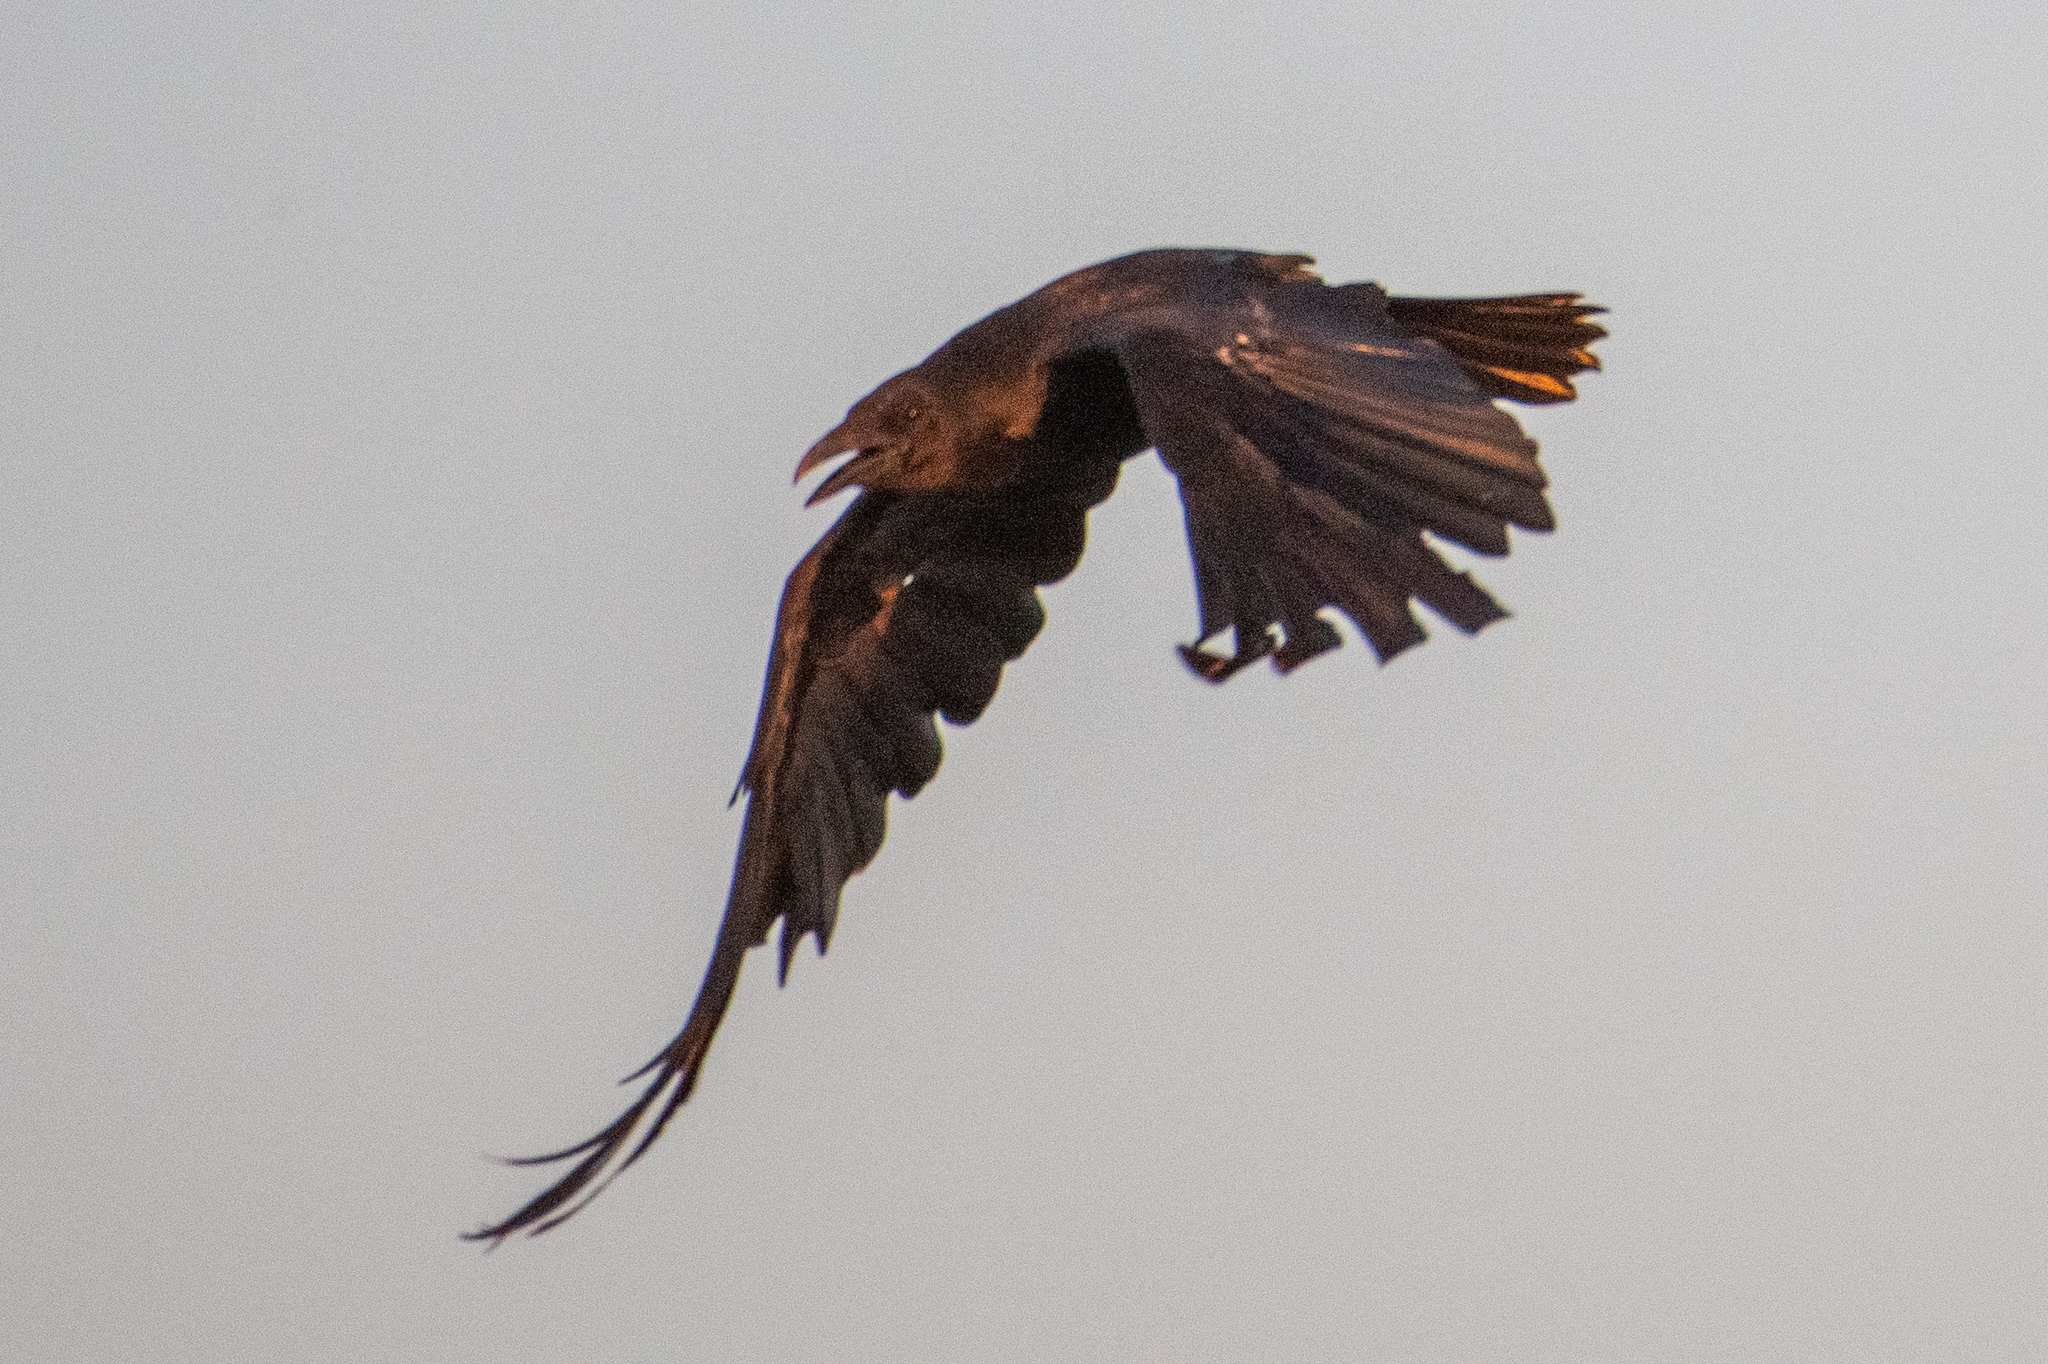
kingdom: Animalia
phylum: Chordata
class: Aves
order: Passeriformes
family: Corvidae
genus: Corvus
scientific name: Corvus corax
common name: Common raven
